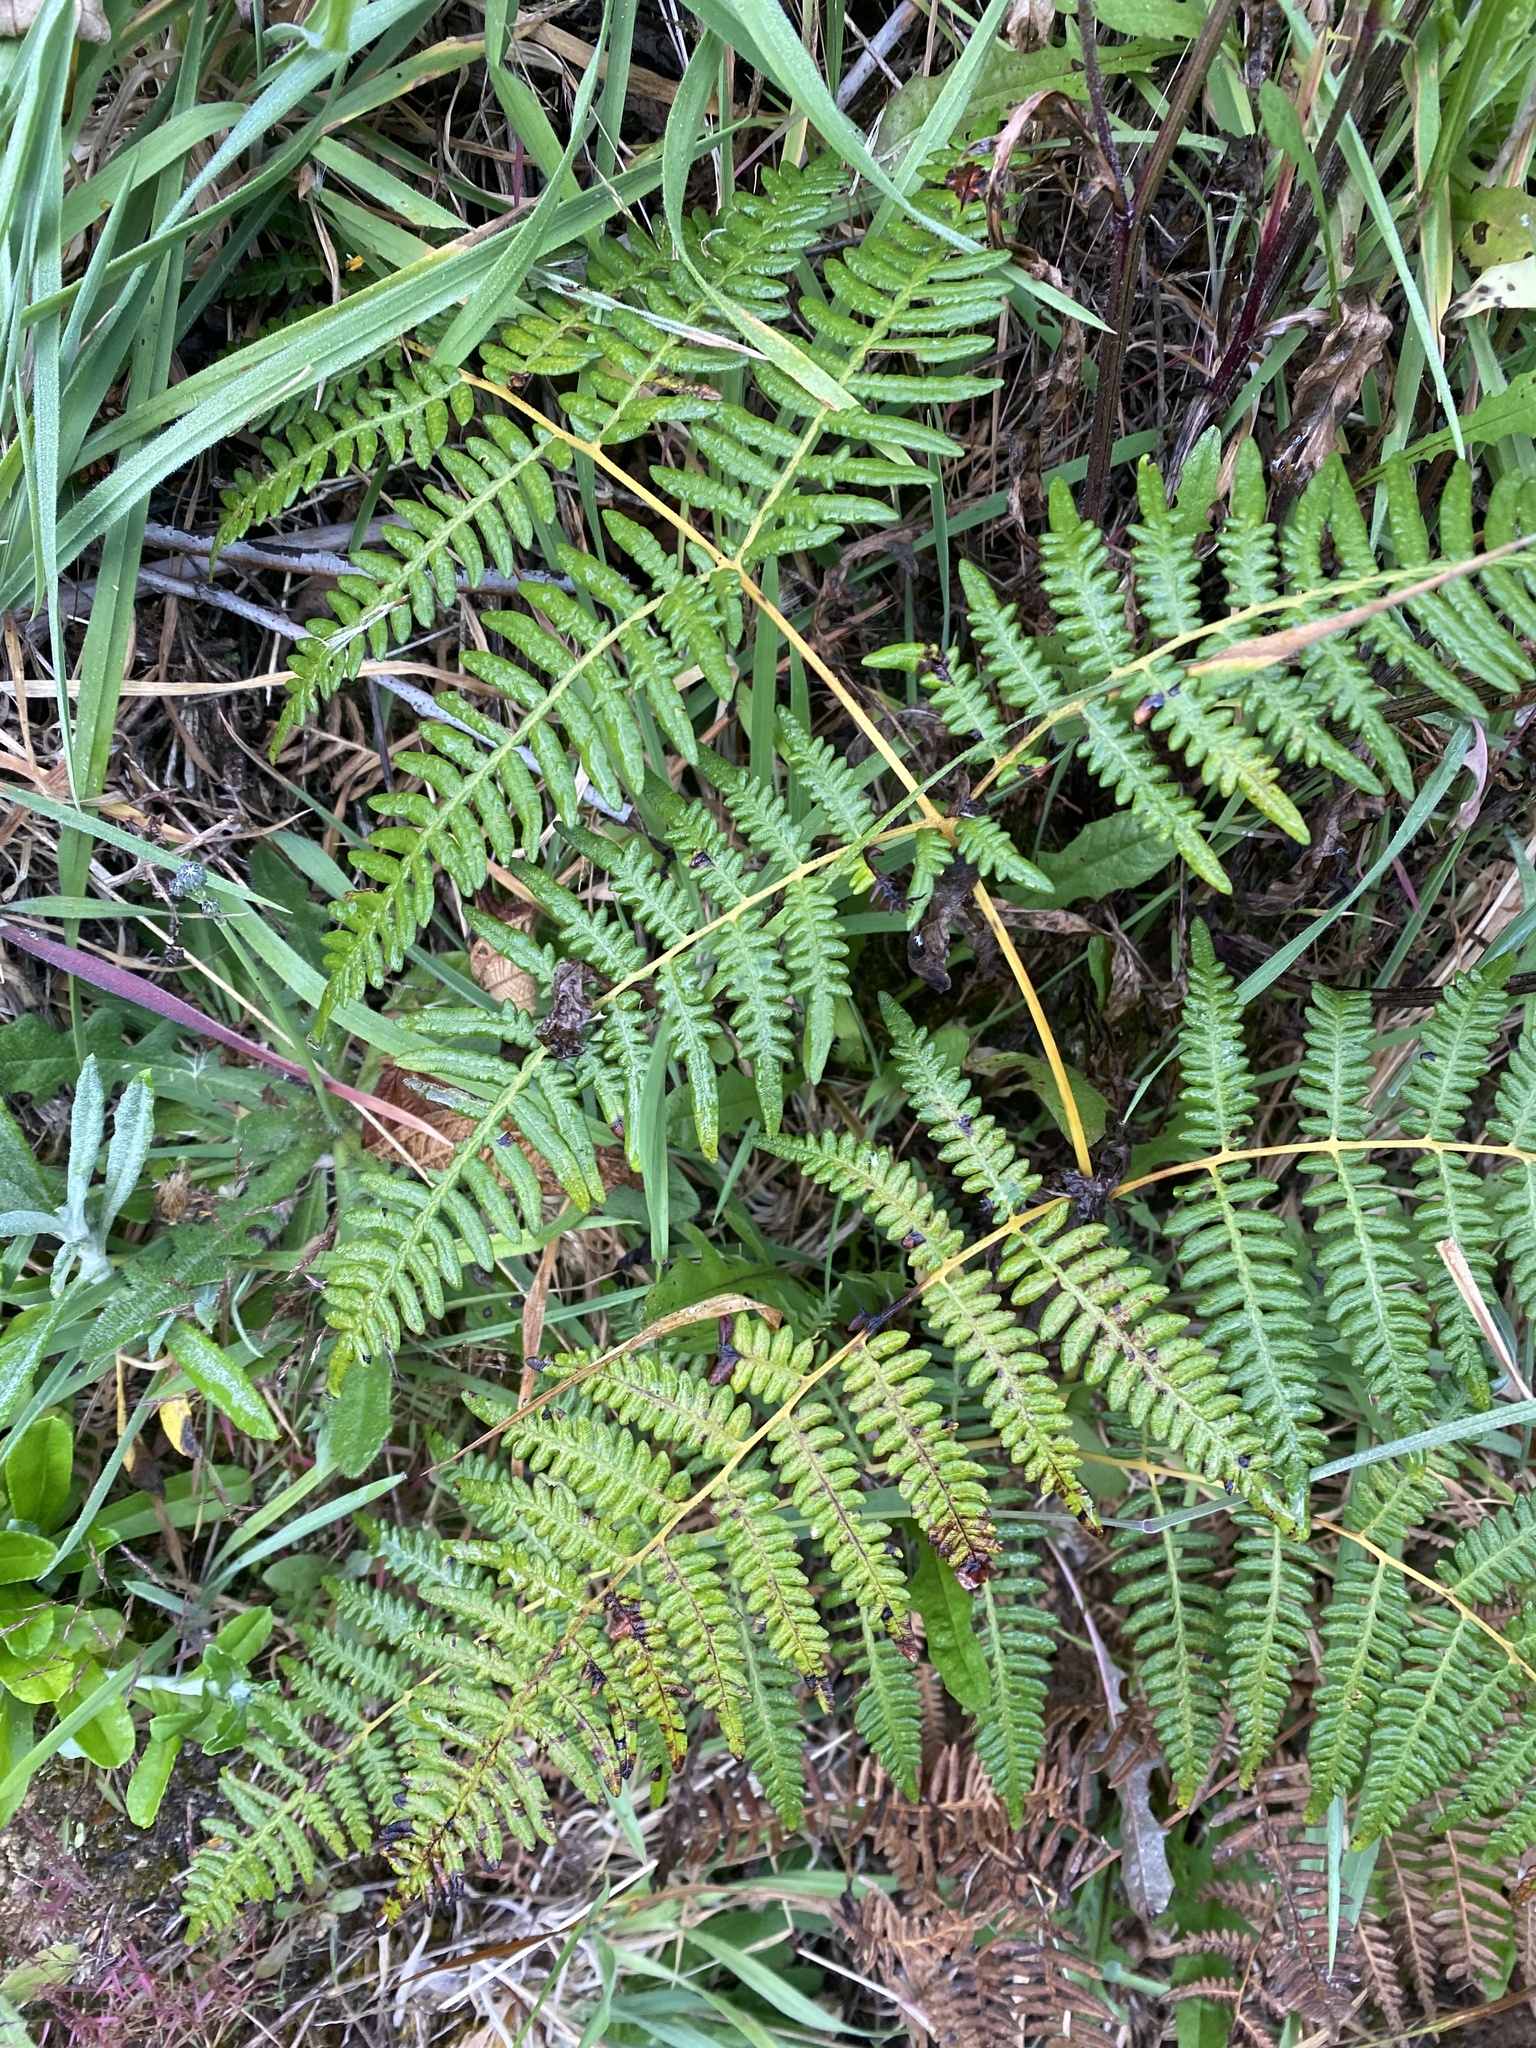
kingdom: Plantae
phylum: Tracheophyta
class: Polypodiopsida
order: Polypodiales
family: Dennstaedtiaceae
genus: Pteridium
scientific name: Pteridium esculentum
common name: Bracken fern
